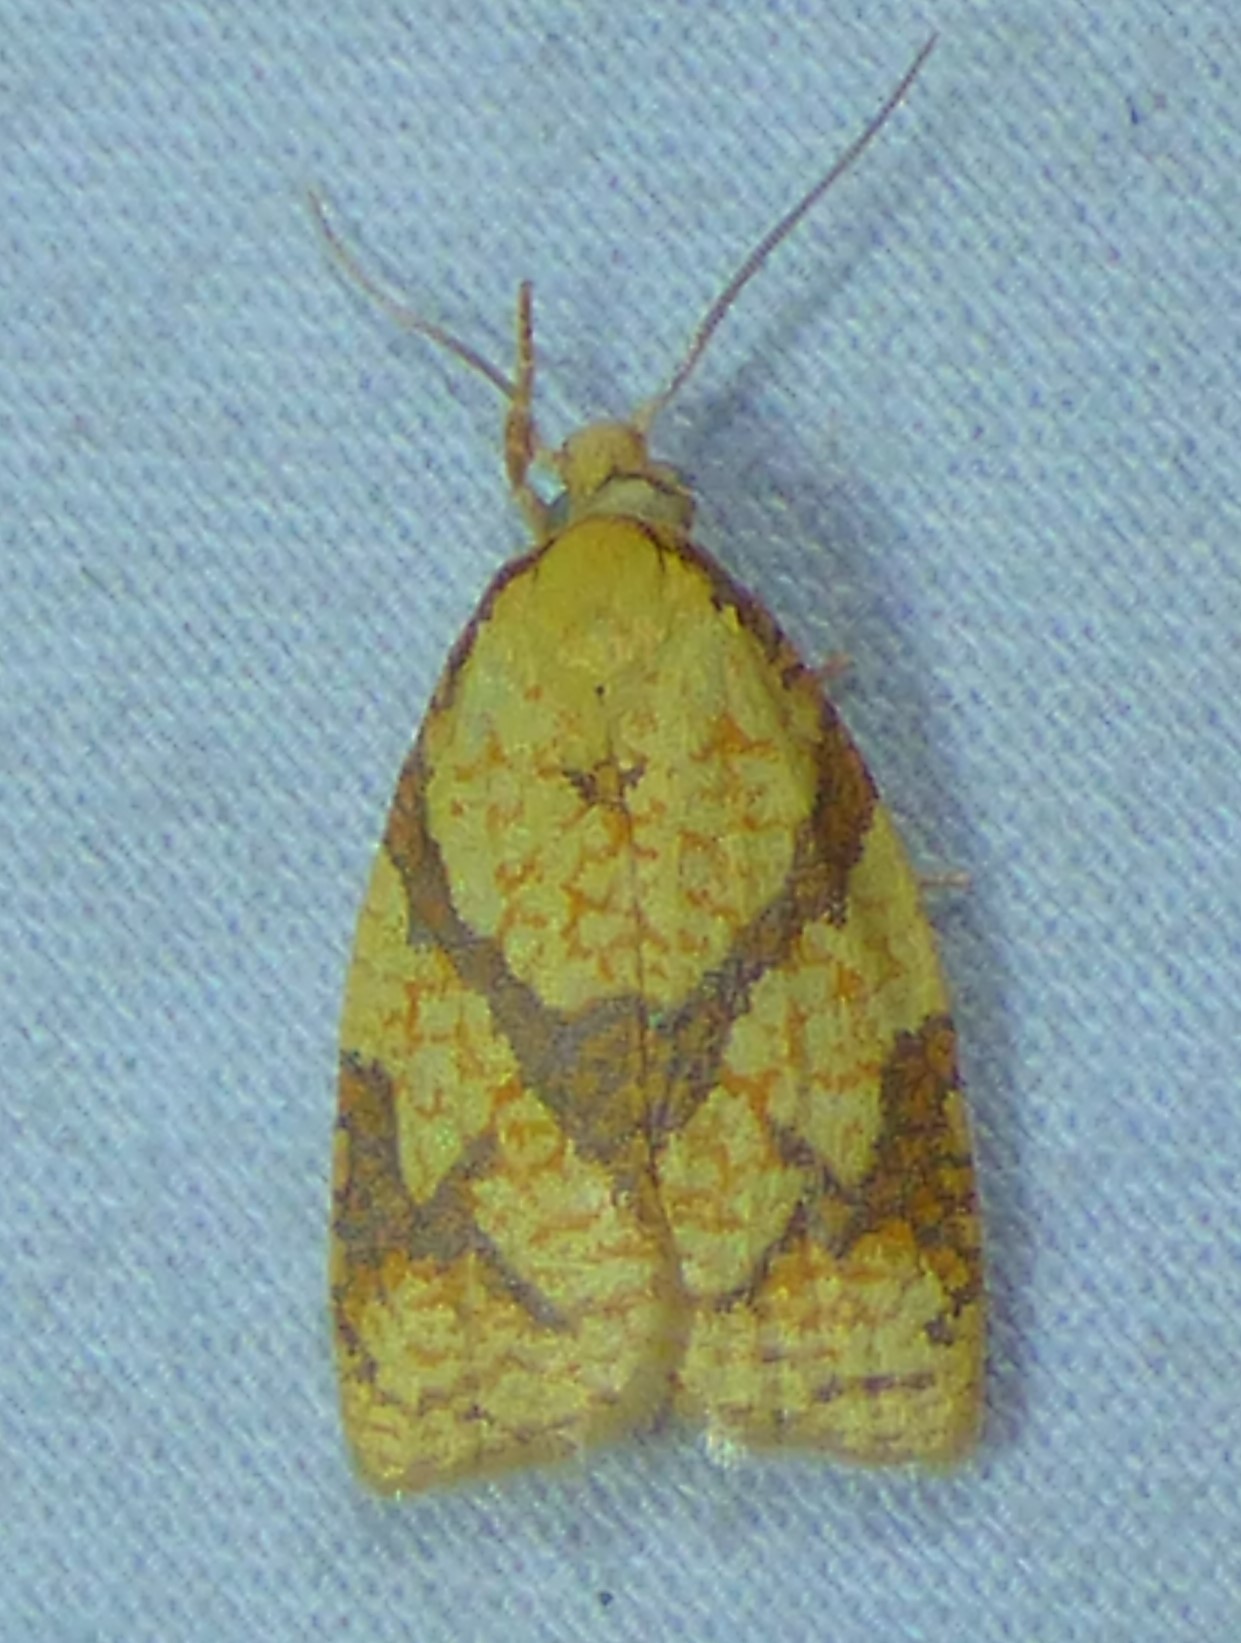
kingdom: Animalia
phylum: Arthropoda
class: Insecta
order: Lepidoptera
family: Tortricidae
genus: Cenopis
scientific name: Cenopis reticulatana
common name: Reticulated fruitworm moth
